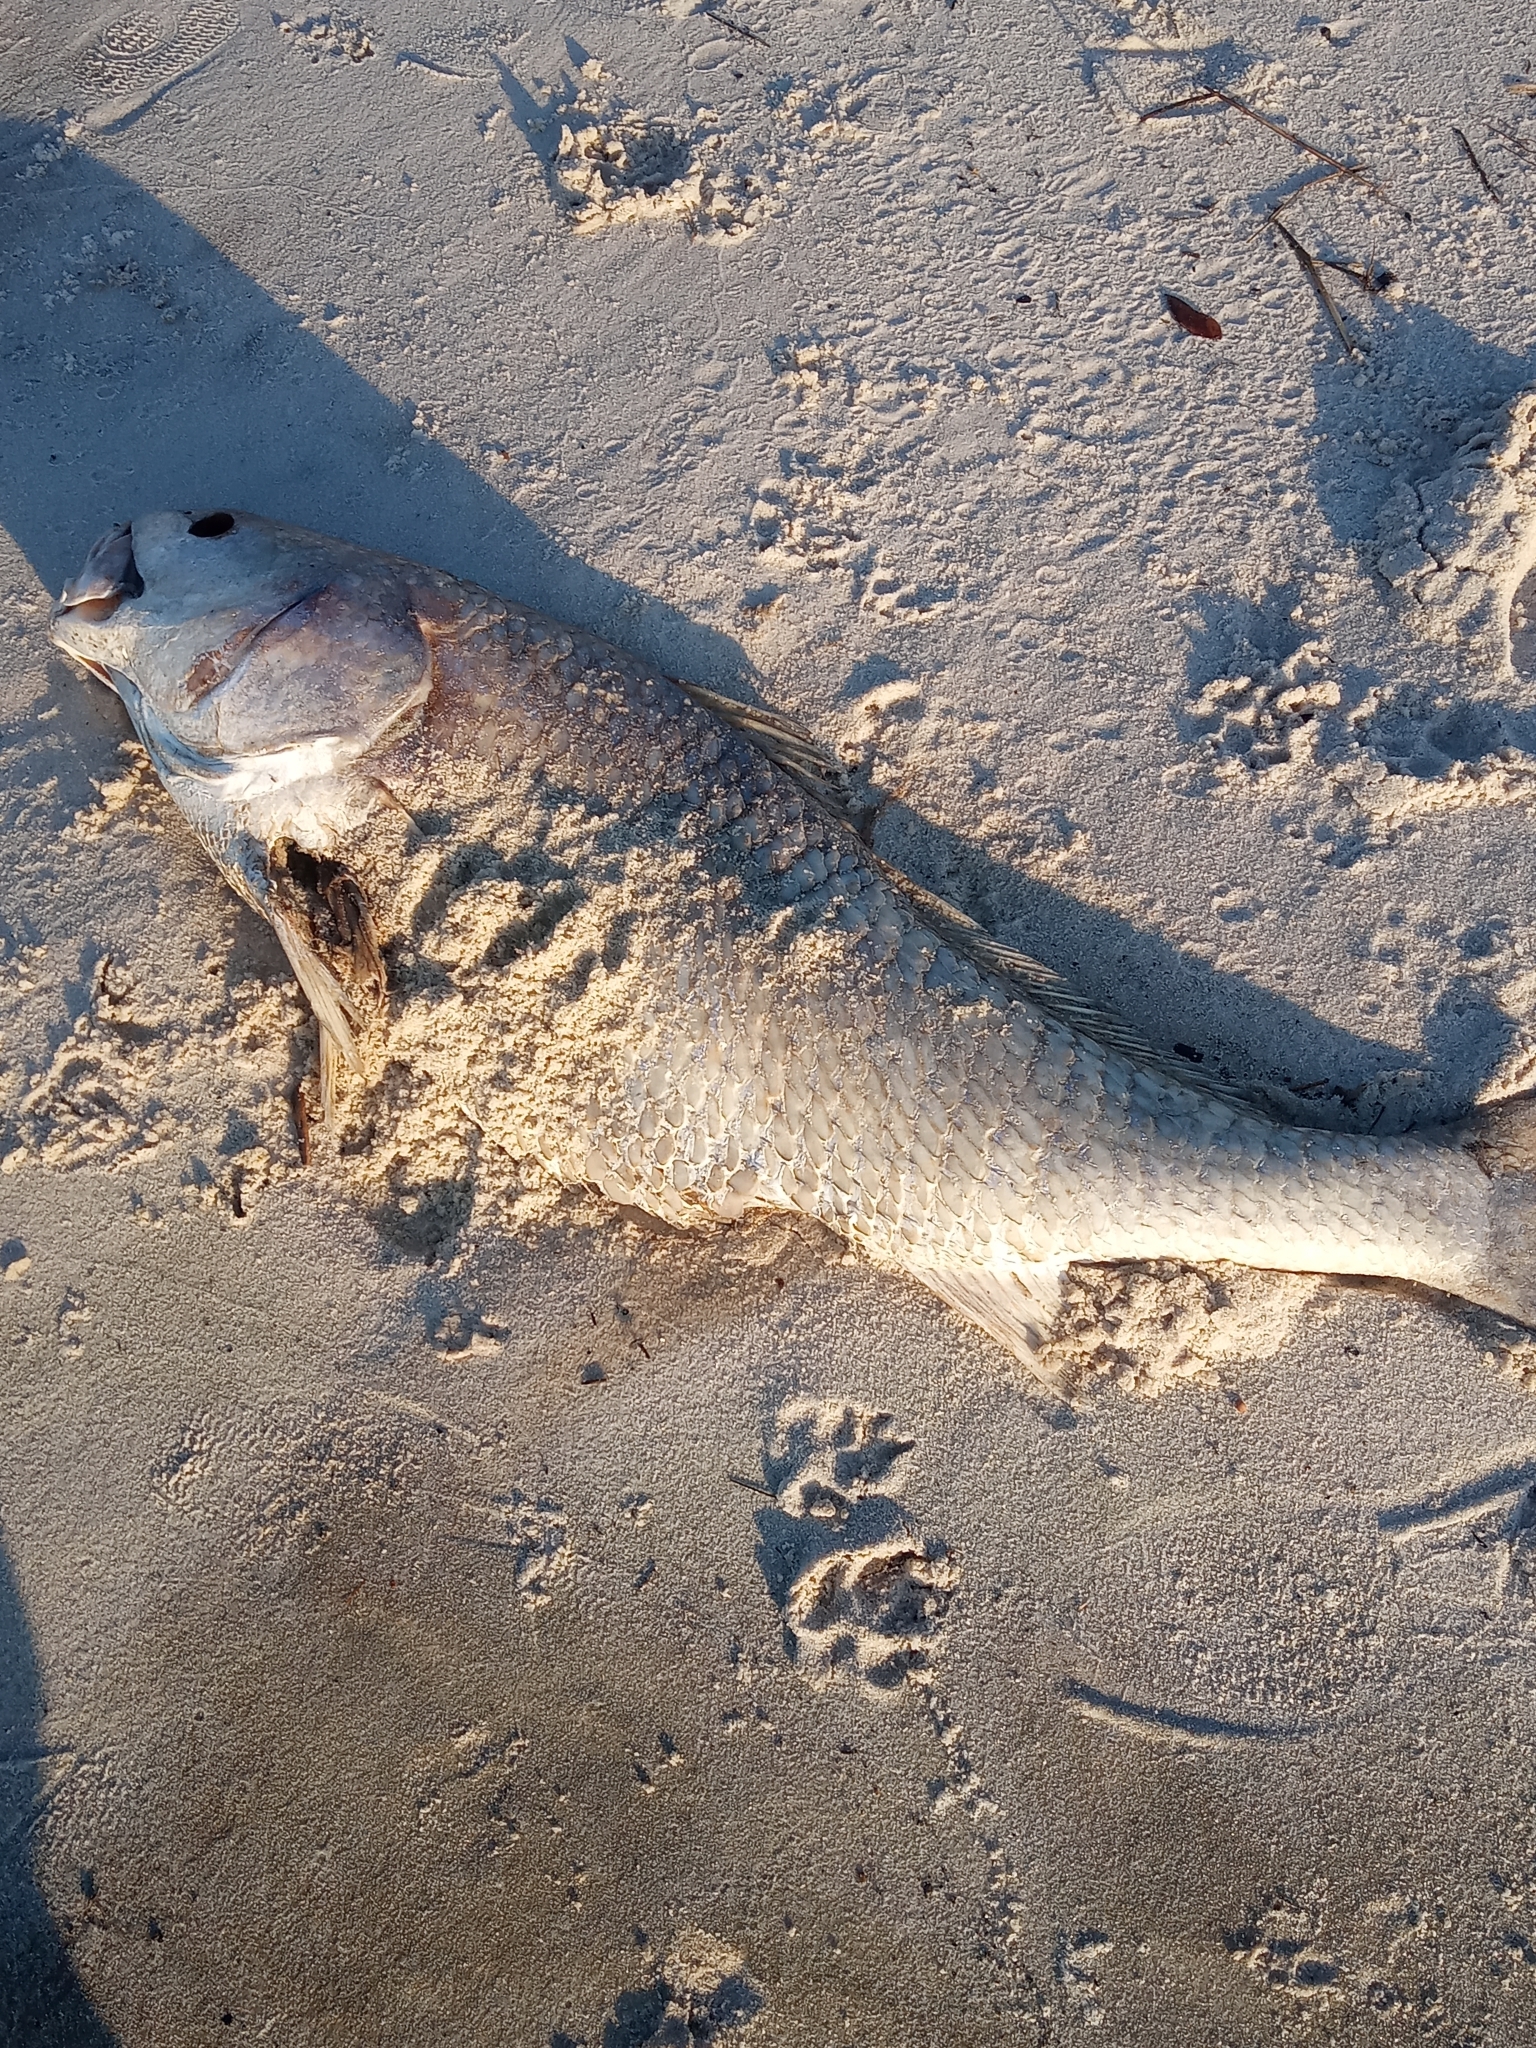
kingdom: Animalia
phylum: Chordata
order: Perciformes
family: Sciaenidae
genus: Sciaenops
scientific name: Sciaenops ocellatus
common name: Red drum
